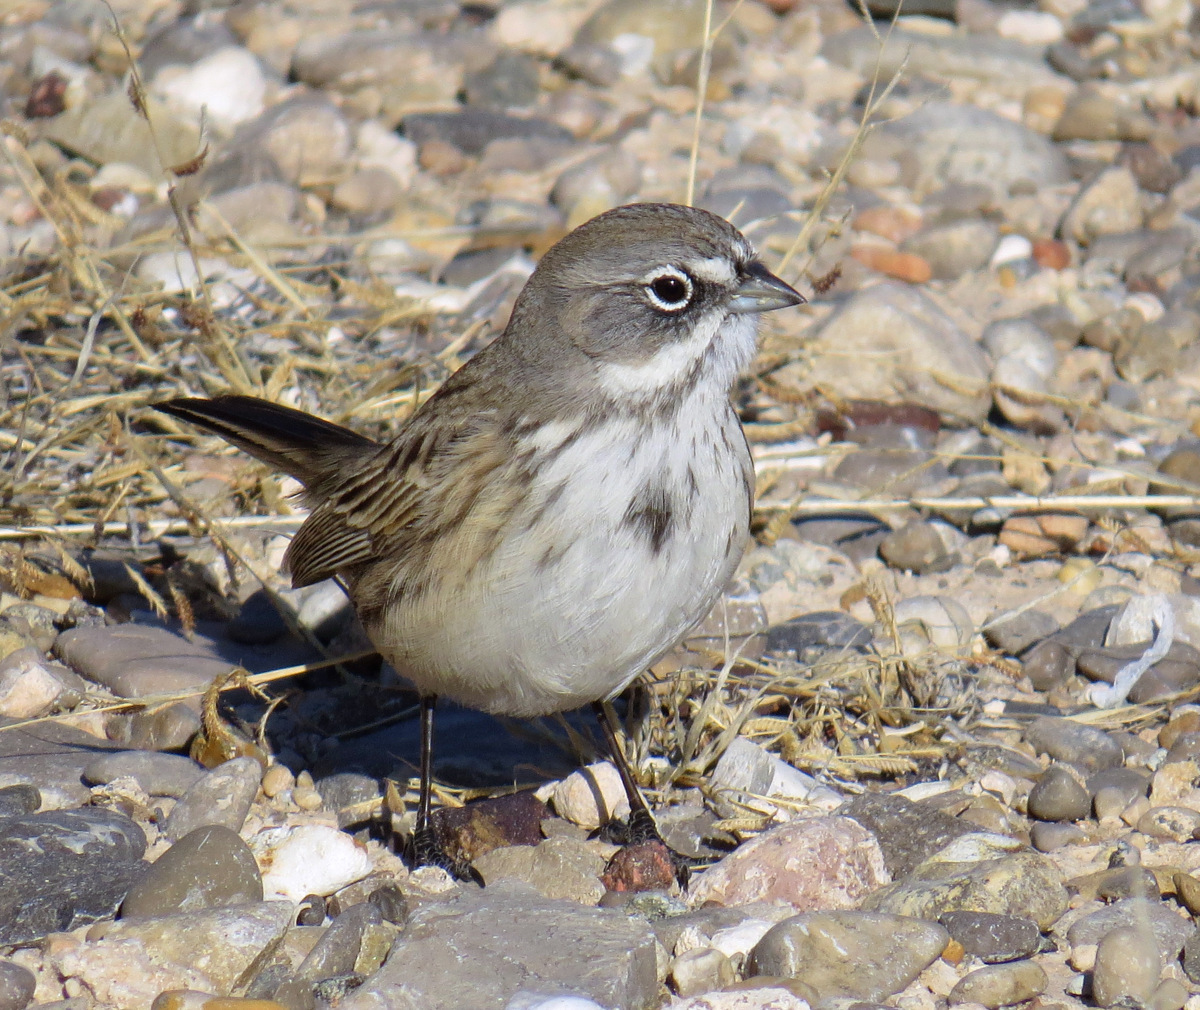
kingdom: Animalia
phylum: Chordata
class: Aves
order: Passeriformes
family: Passerellidae
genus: Artemisiospiza
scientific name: Artemisiospiza nevadensis
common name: Sagebrush sparrow
